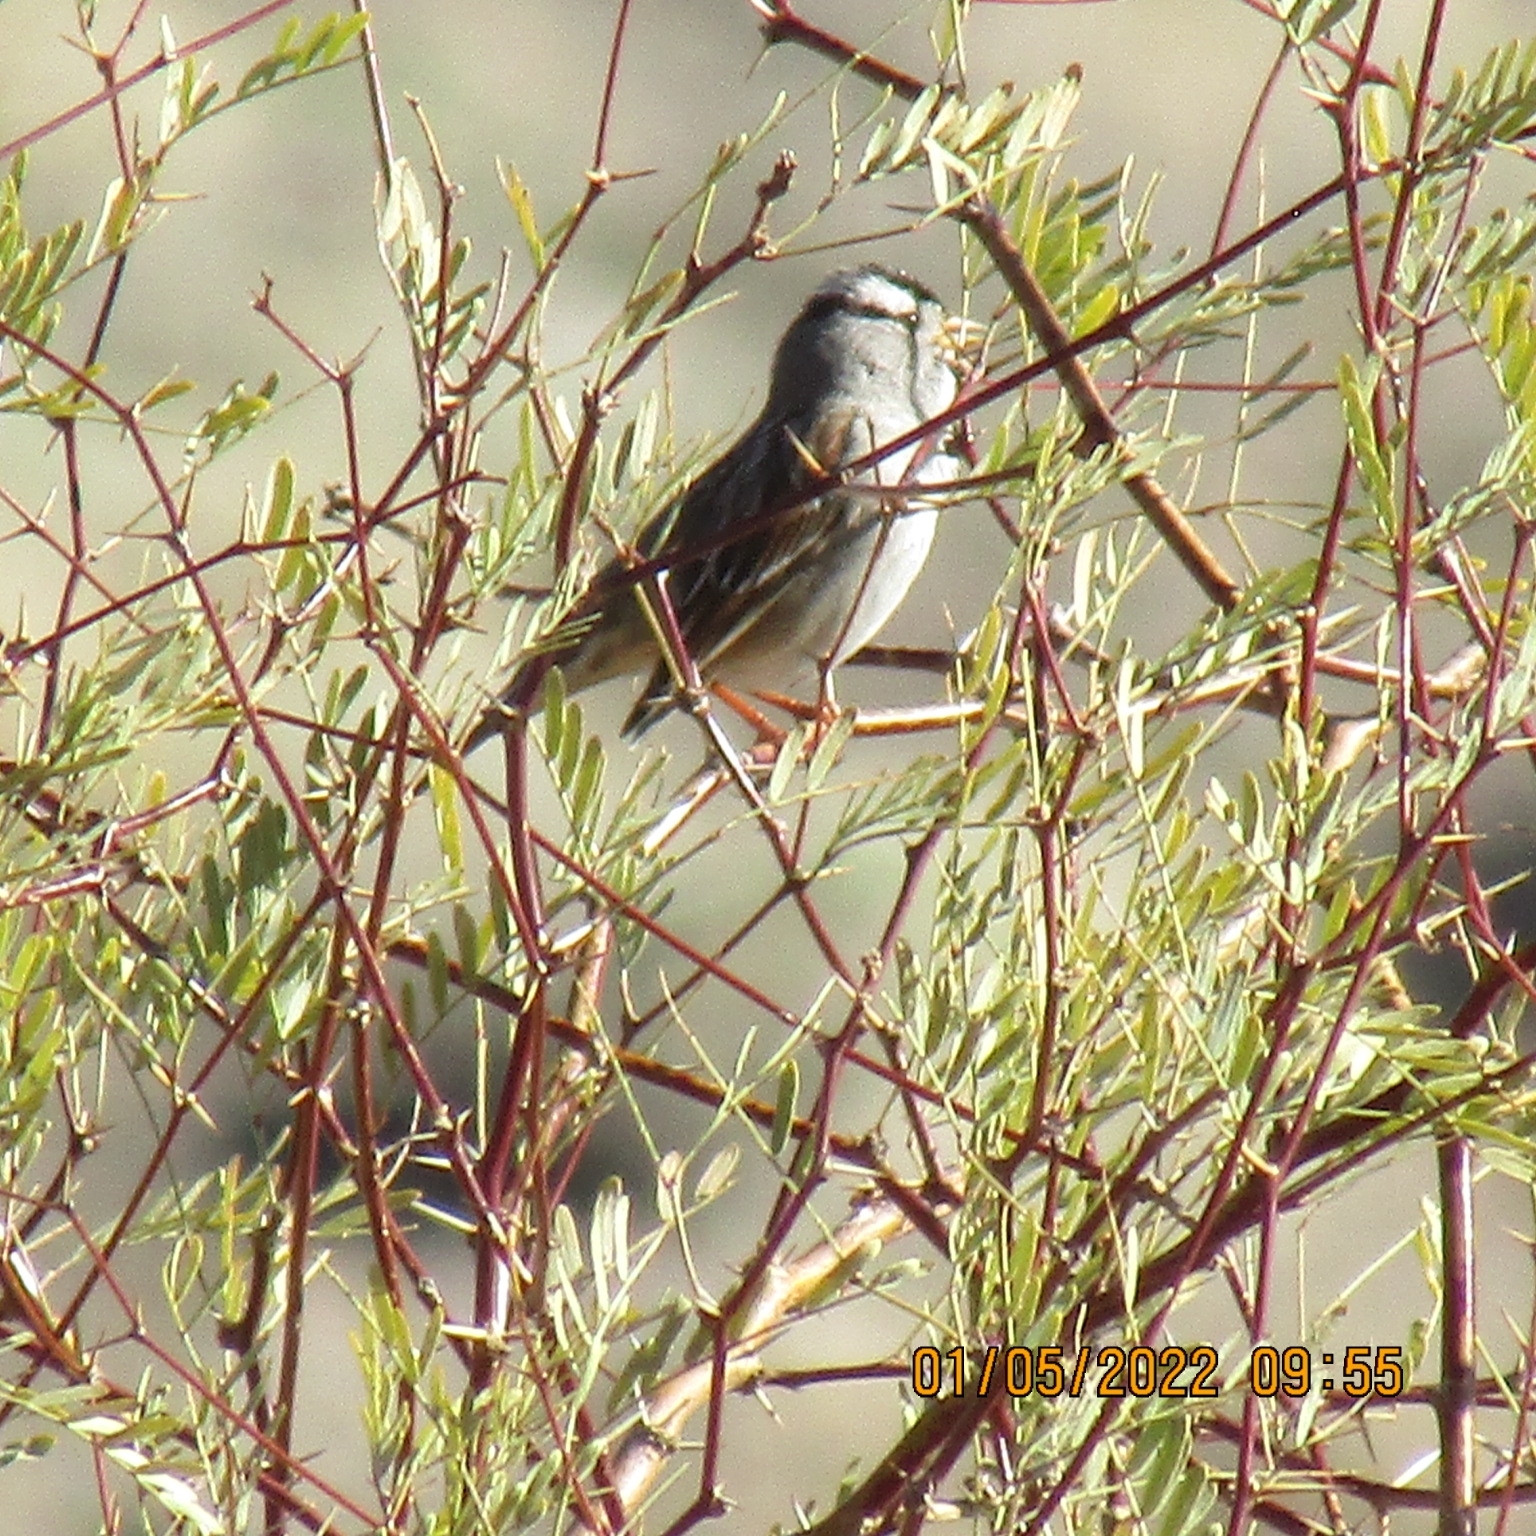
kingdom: Animalia
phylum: Chordata
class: Aves
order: Passeriformes
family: Passerellidae
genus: Zonotrichia
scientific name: Zonotrichia leucophrys
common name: White-crowned sparrow
